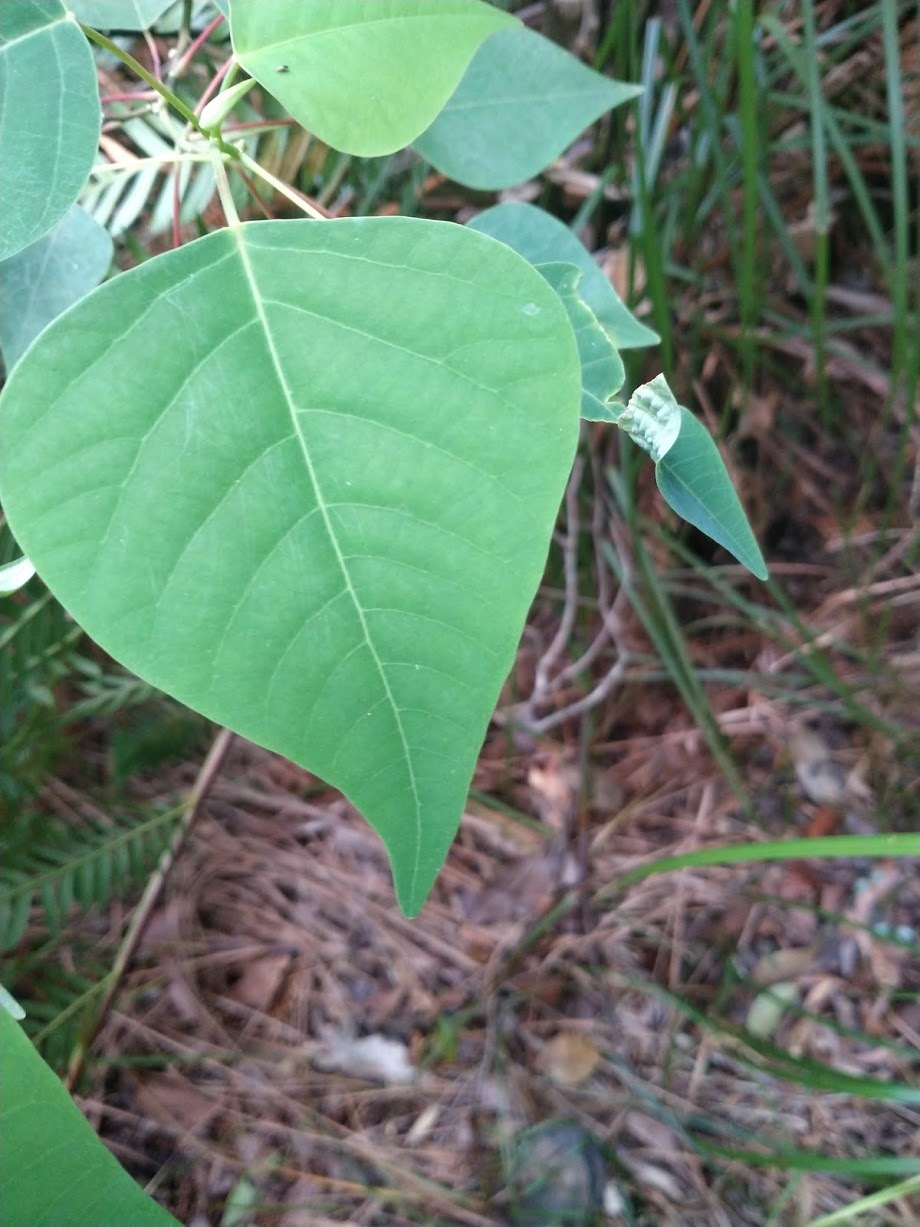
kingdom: Plantae
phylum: Tracheophyta
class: Magnoliopsida
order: Malpighiales
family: Euphorbiaceae
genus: Homalanthus
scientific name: Homalanthus populifolius
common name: Queensland poplar
